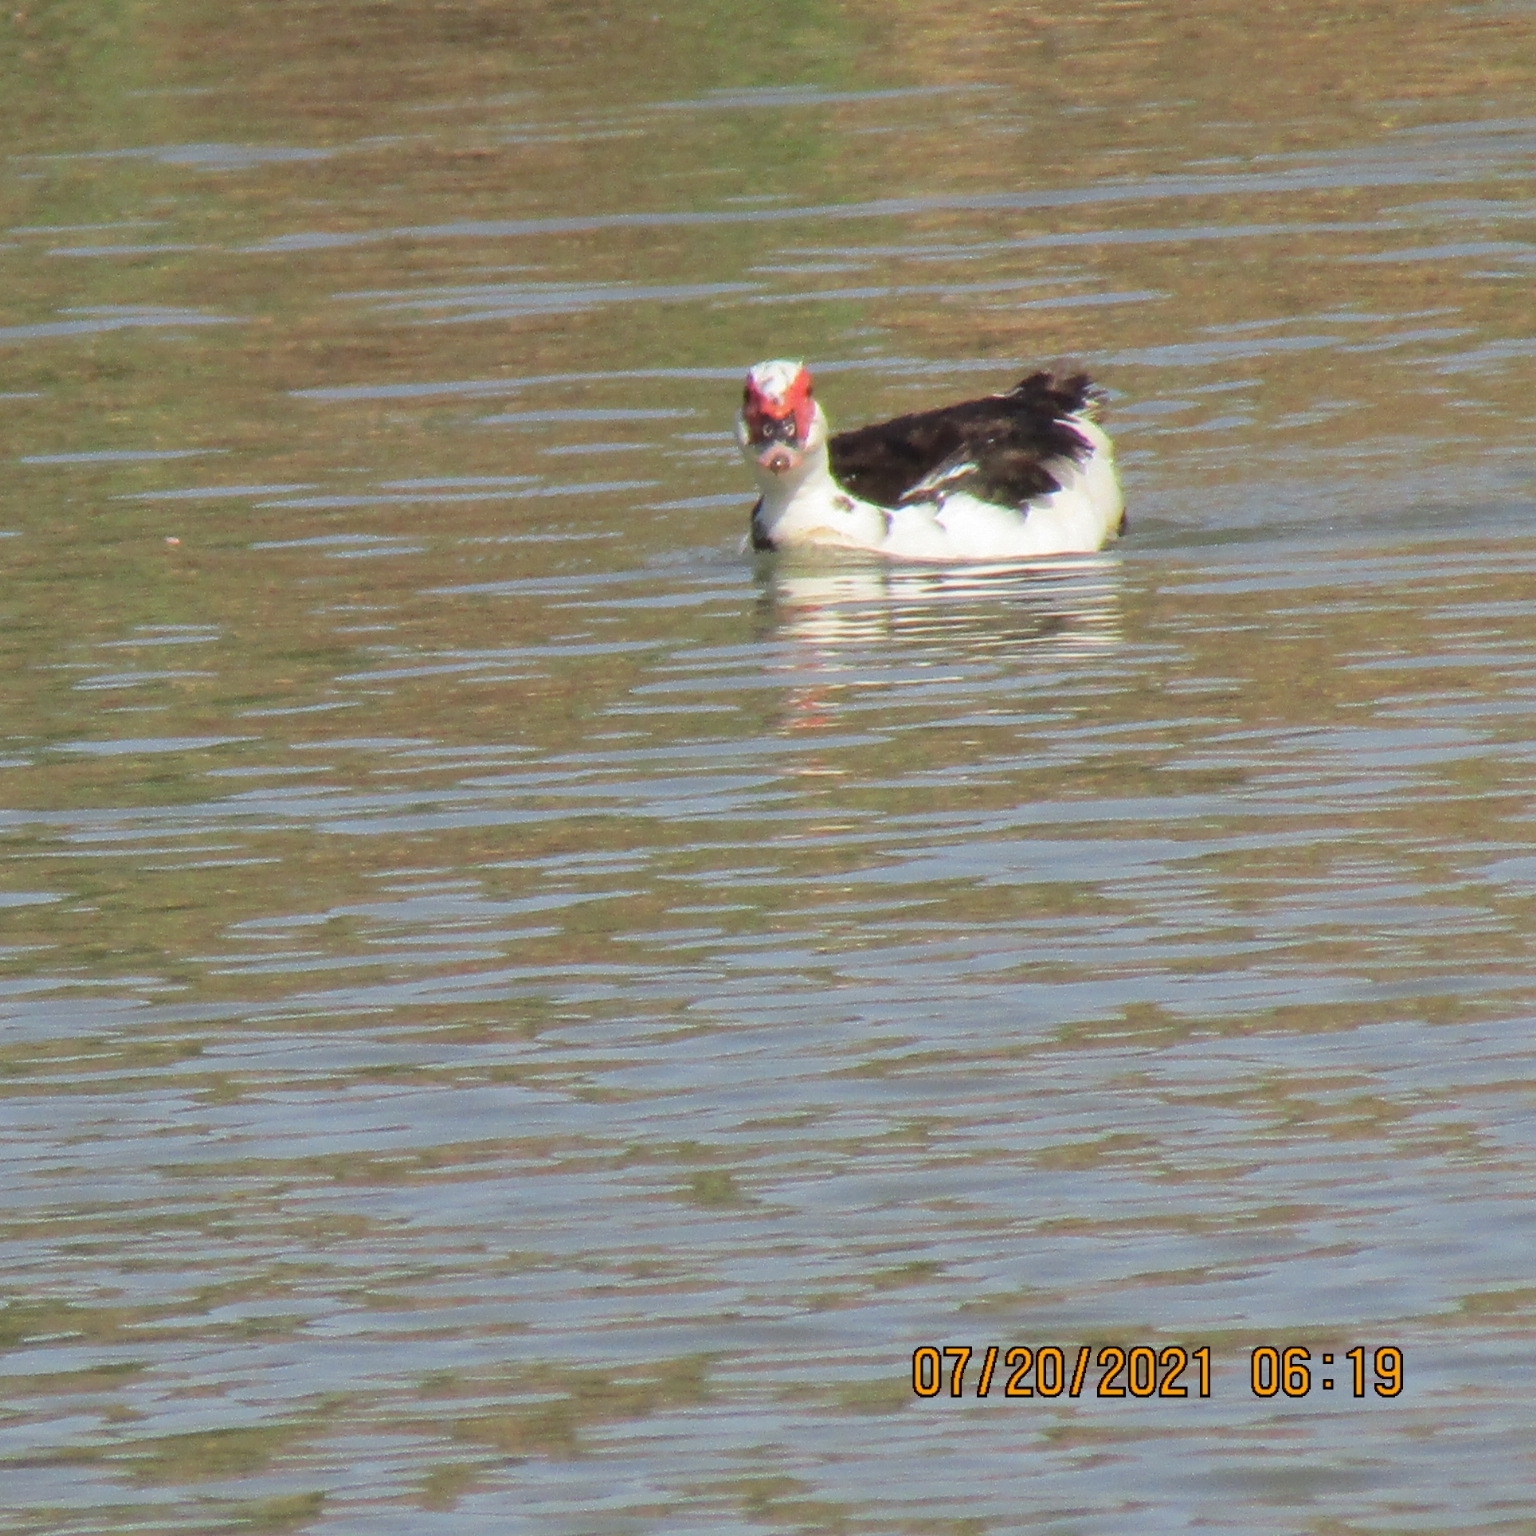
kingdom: Animalia
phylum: Chordata
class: Aves
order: Anseriformes
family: Anatidae
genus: Cairina
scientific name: Cairina moschata
